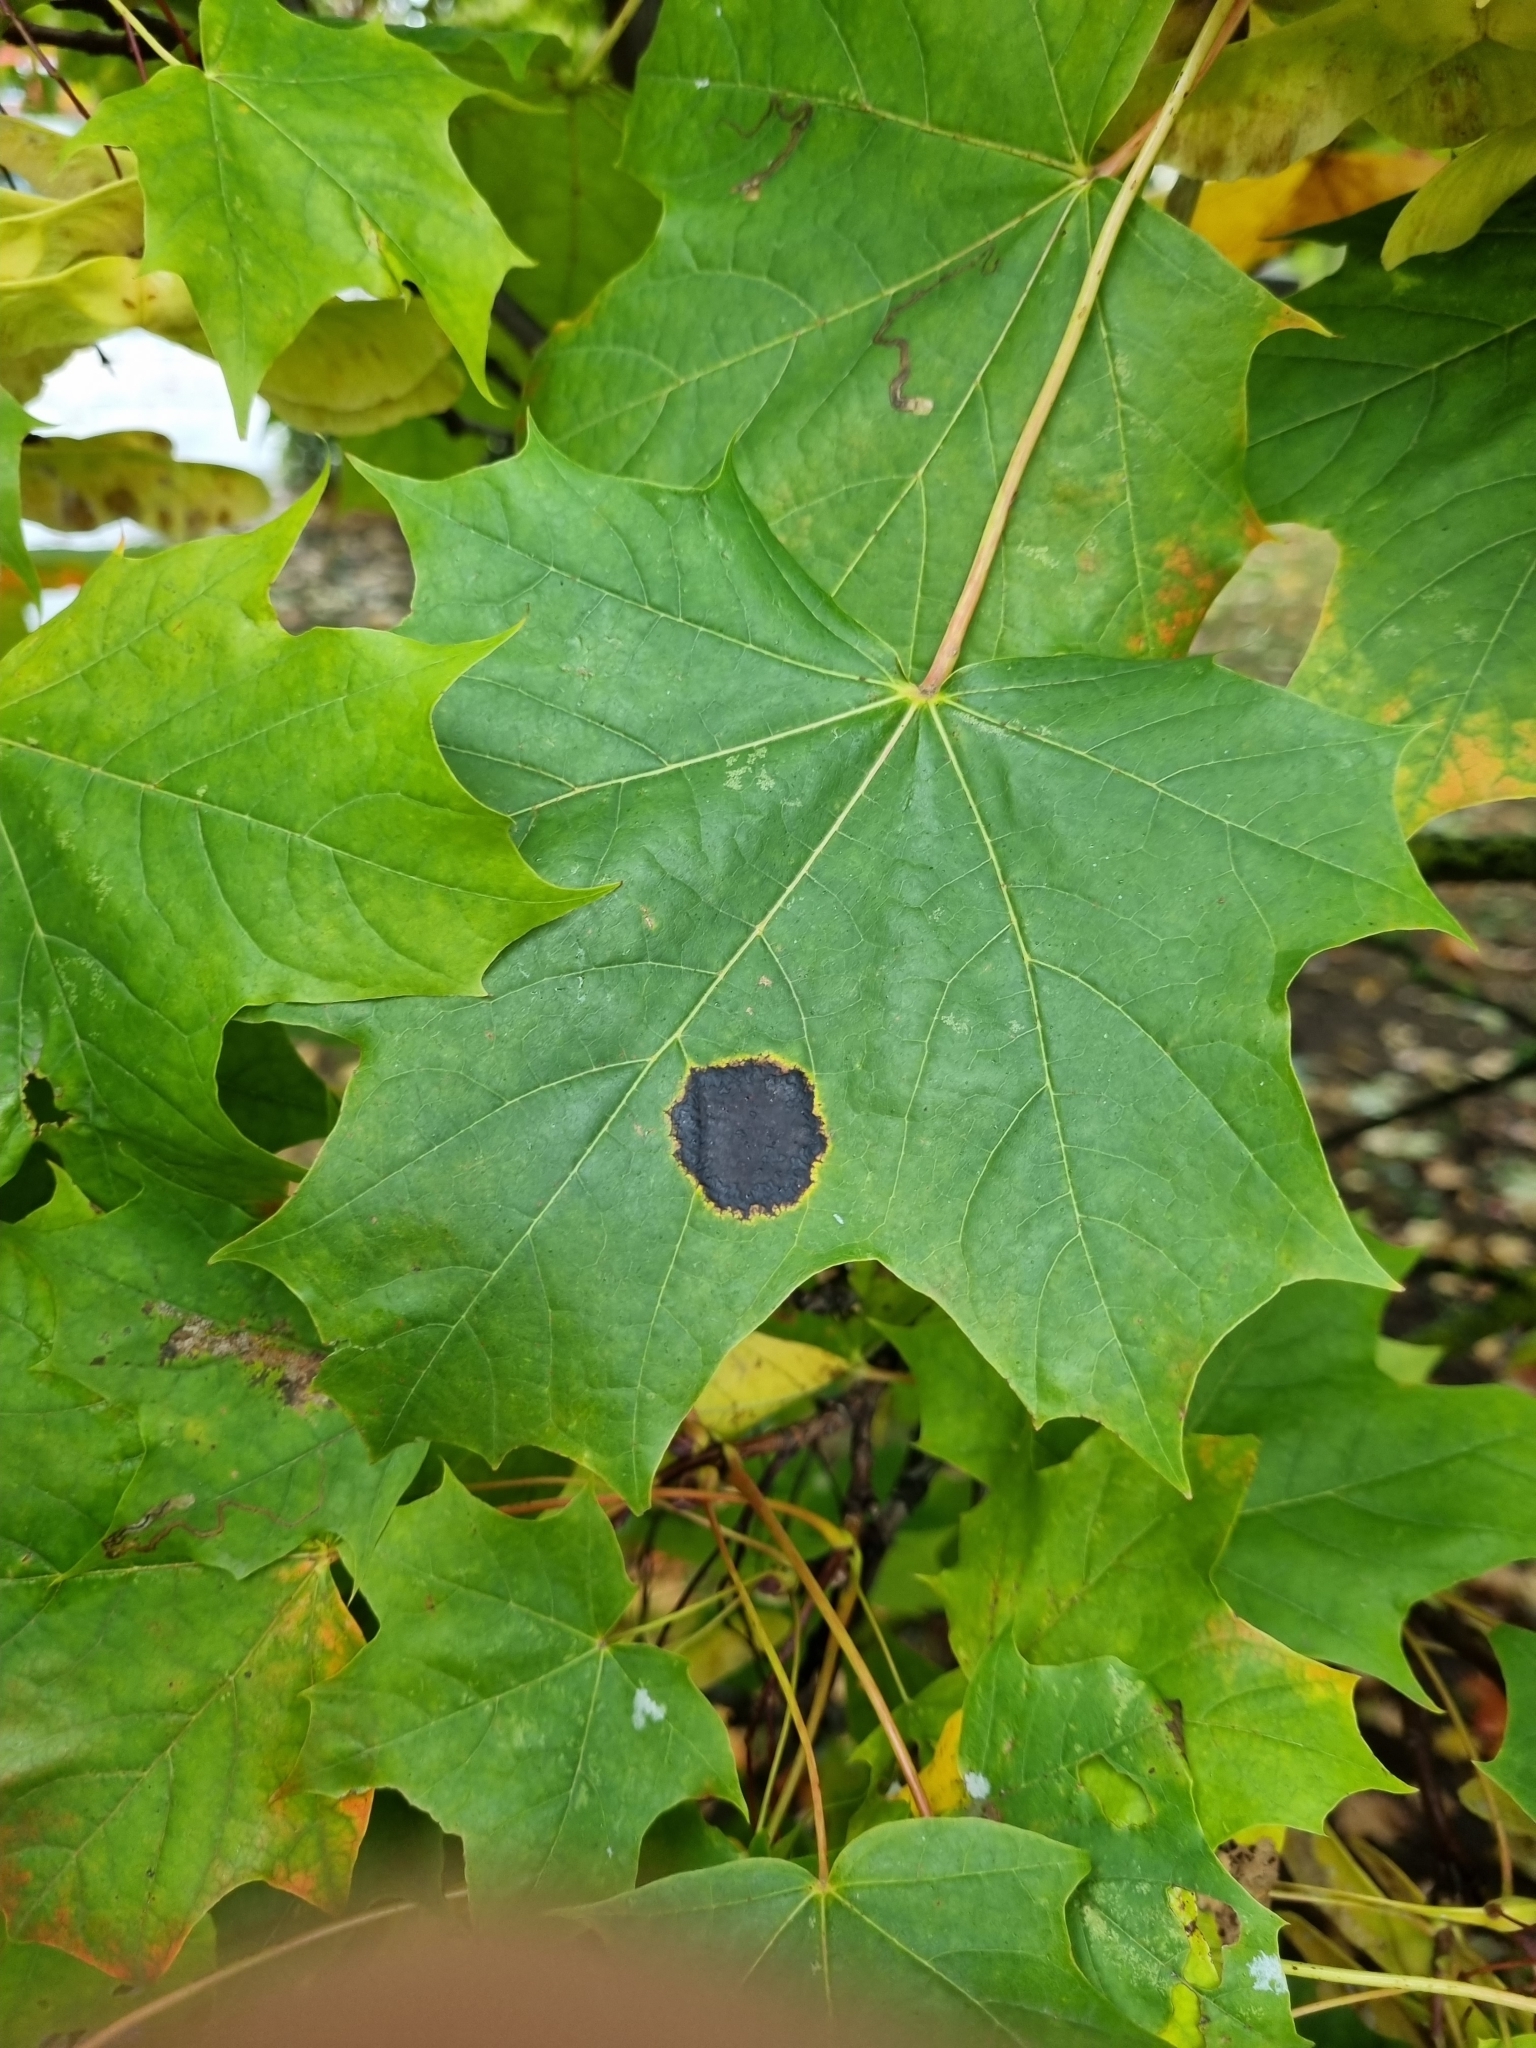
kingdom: Fungi
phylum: Ascomycota
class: Leotiomycetes
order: Rhytismatales
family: Rhytismataceae
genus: Rhytisma
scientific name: Rhytisma acerinum
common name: European tar spot
